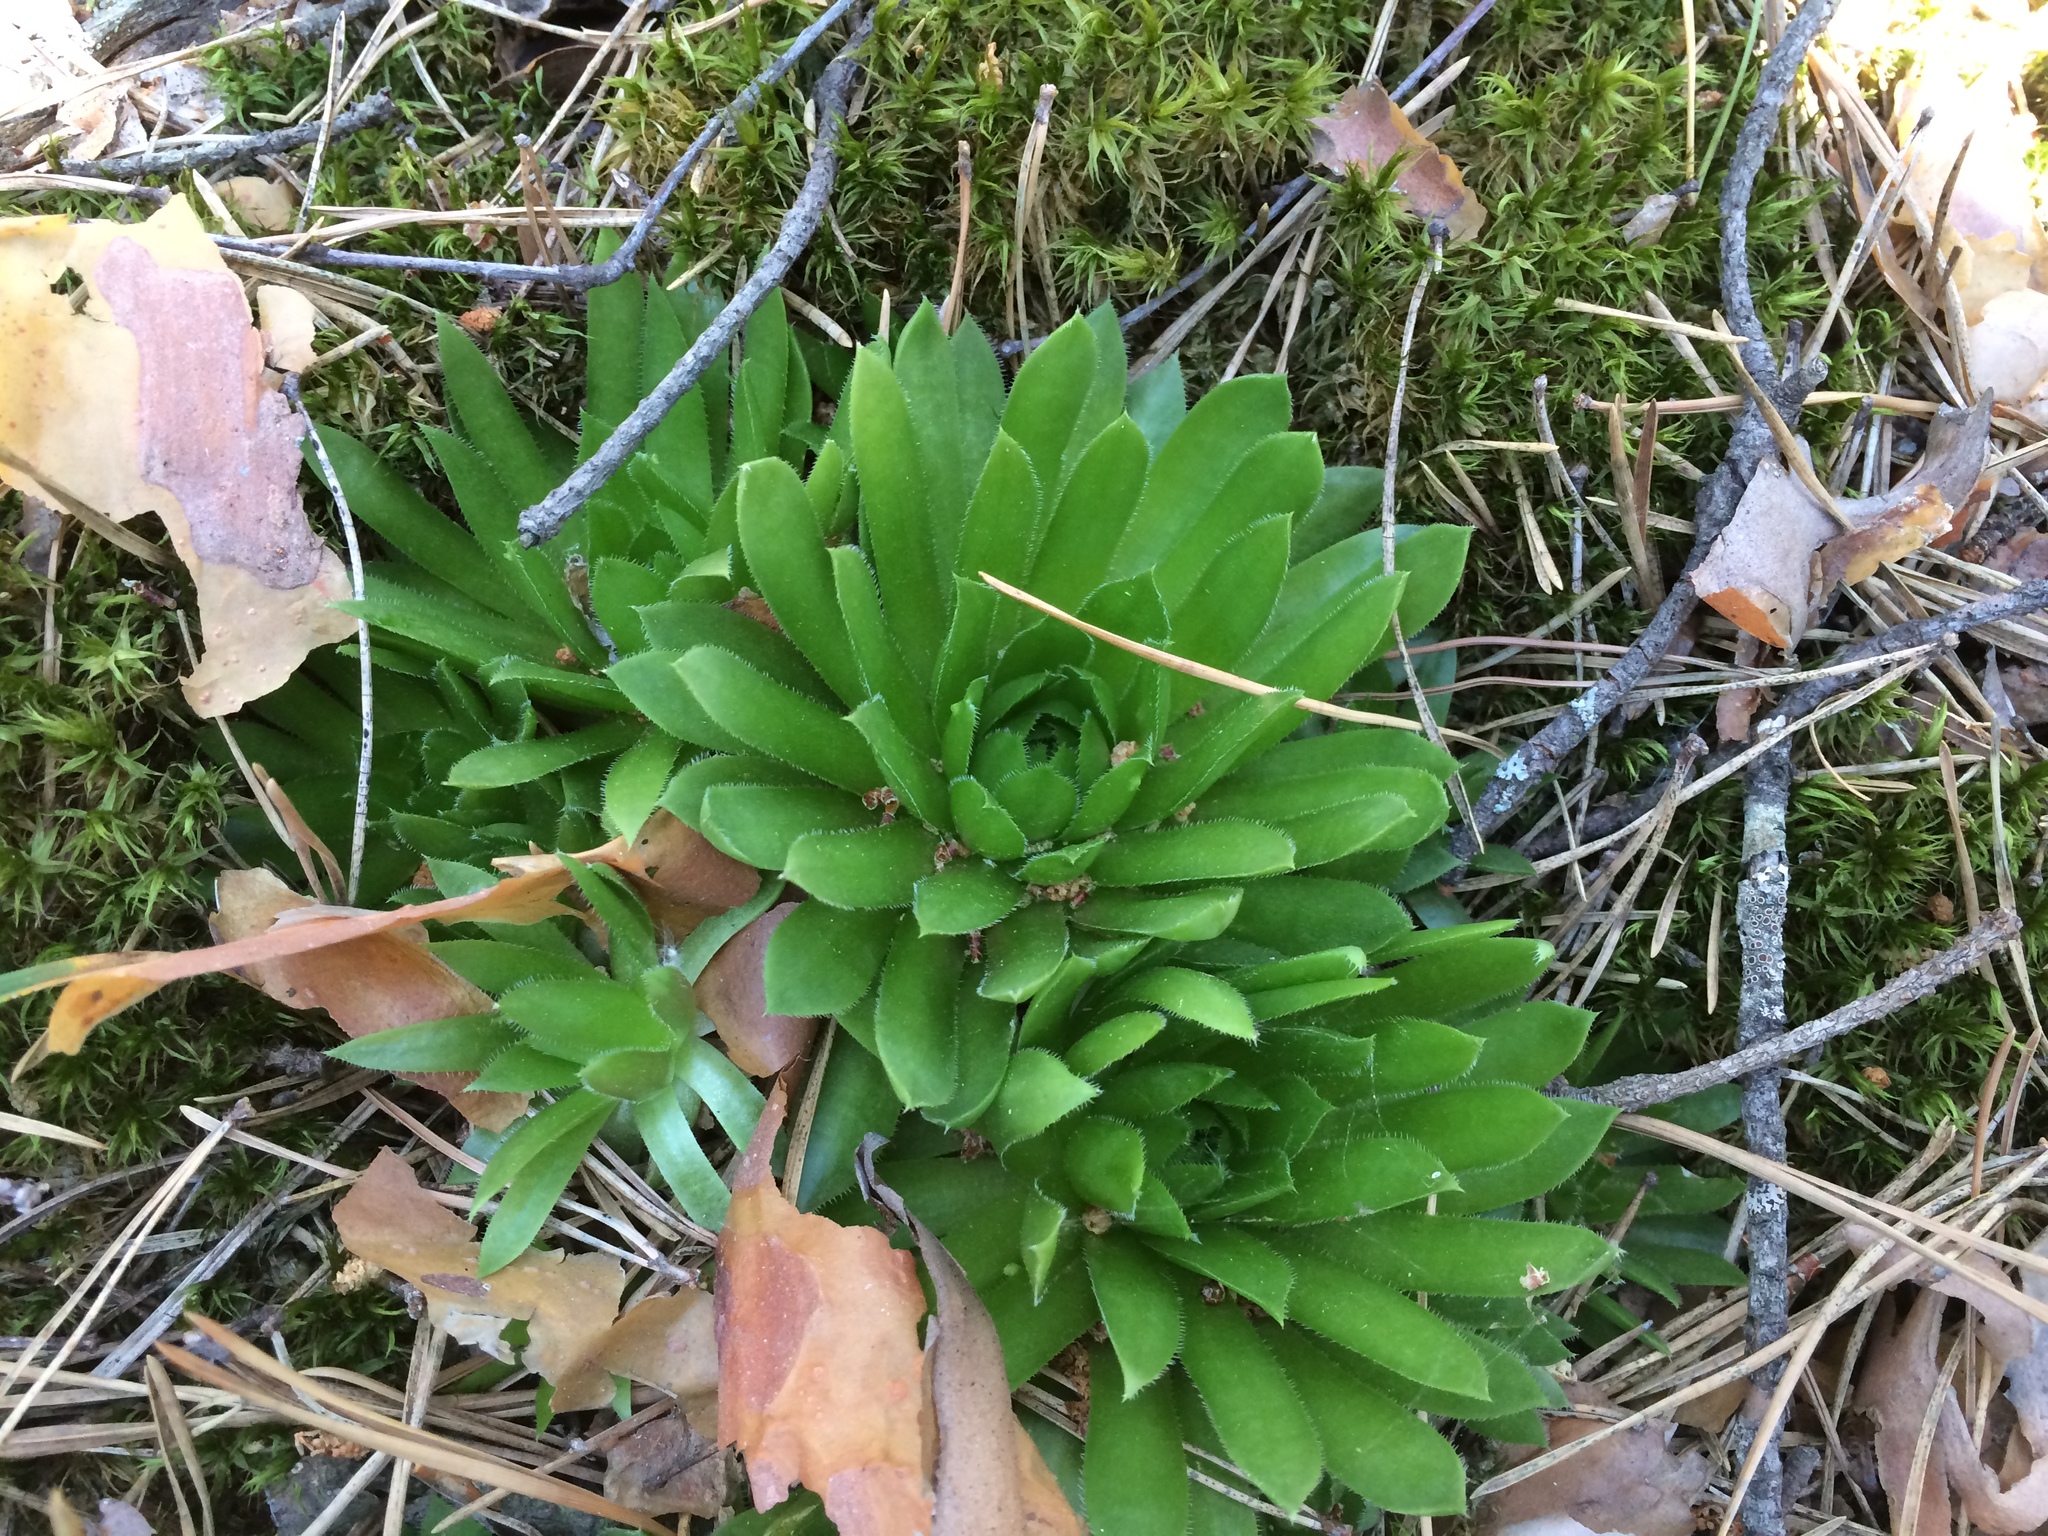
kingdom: Plantae
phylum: Tracheophyta
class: Magnoliopsida
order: Saxifragales
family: Crassulaceae
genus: Sempervivum
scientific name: Sempervivum globiferum
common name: Rolling hen-and-chicks
